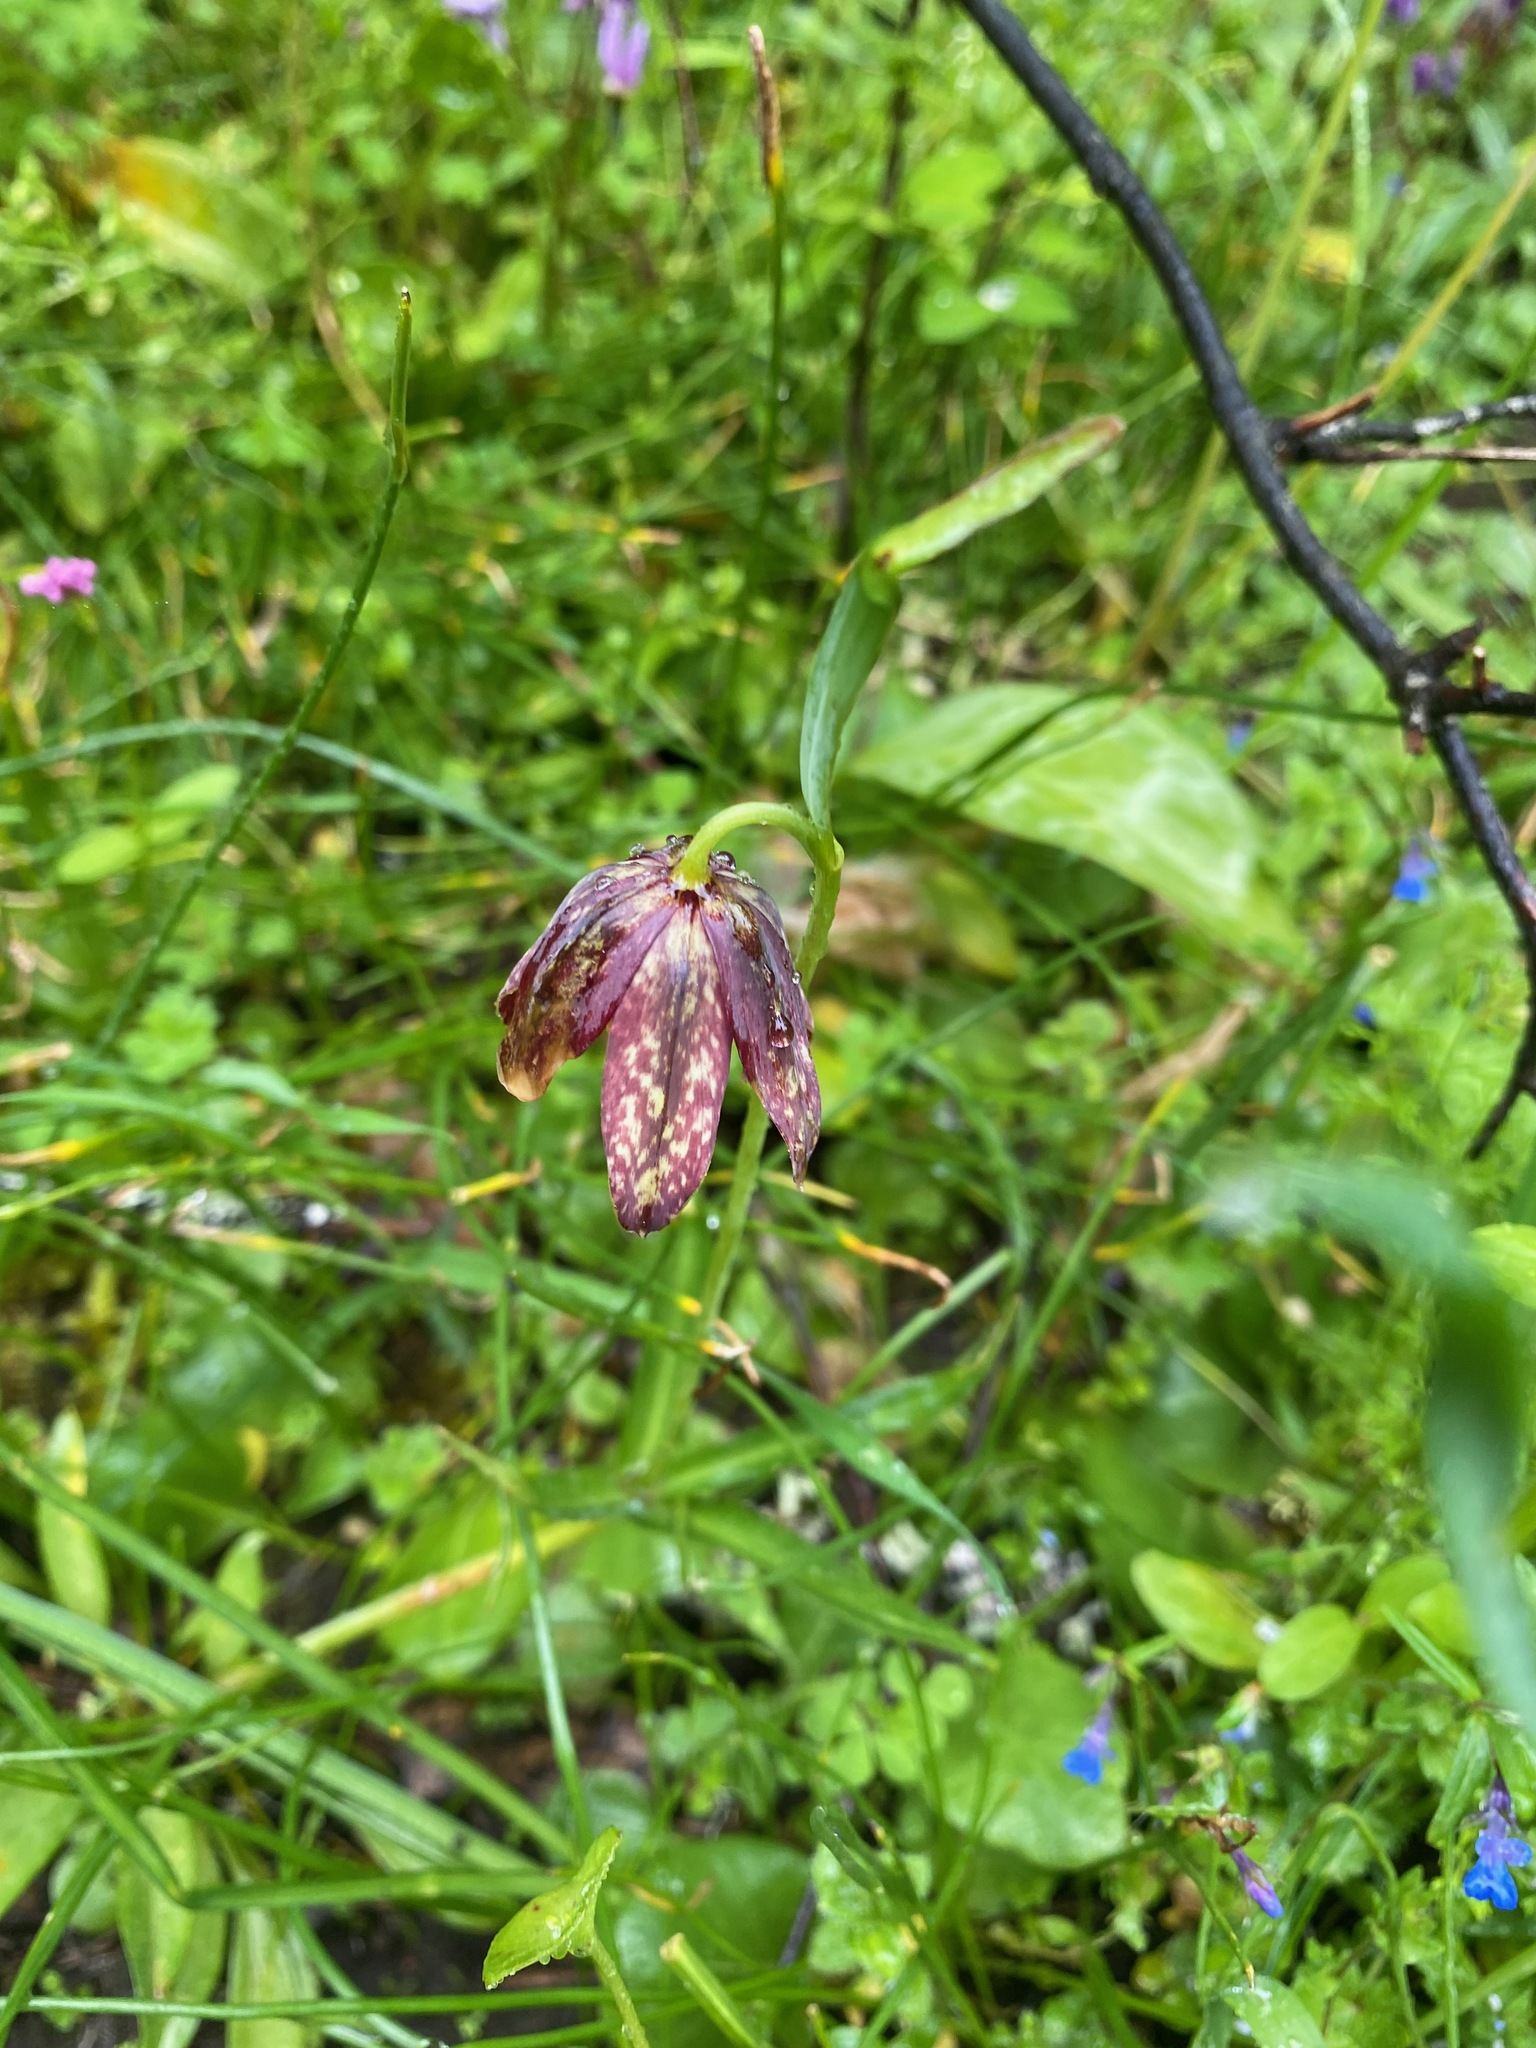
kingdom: Plantae
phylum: Tracheophyta
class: Liliopsida
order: Liliales
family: Liliaceae
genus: Fritillaria
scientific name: Fritillaria affinis
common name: Ojai fritillary
